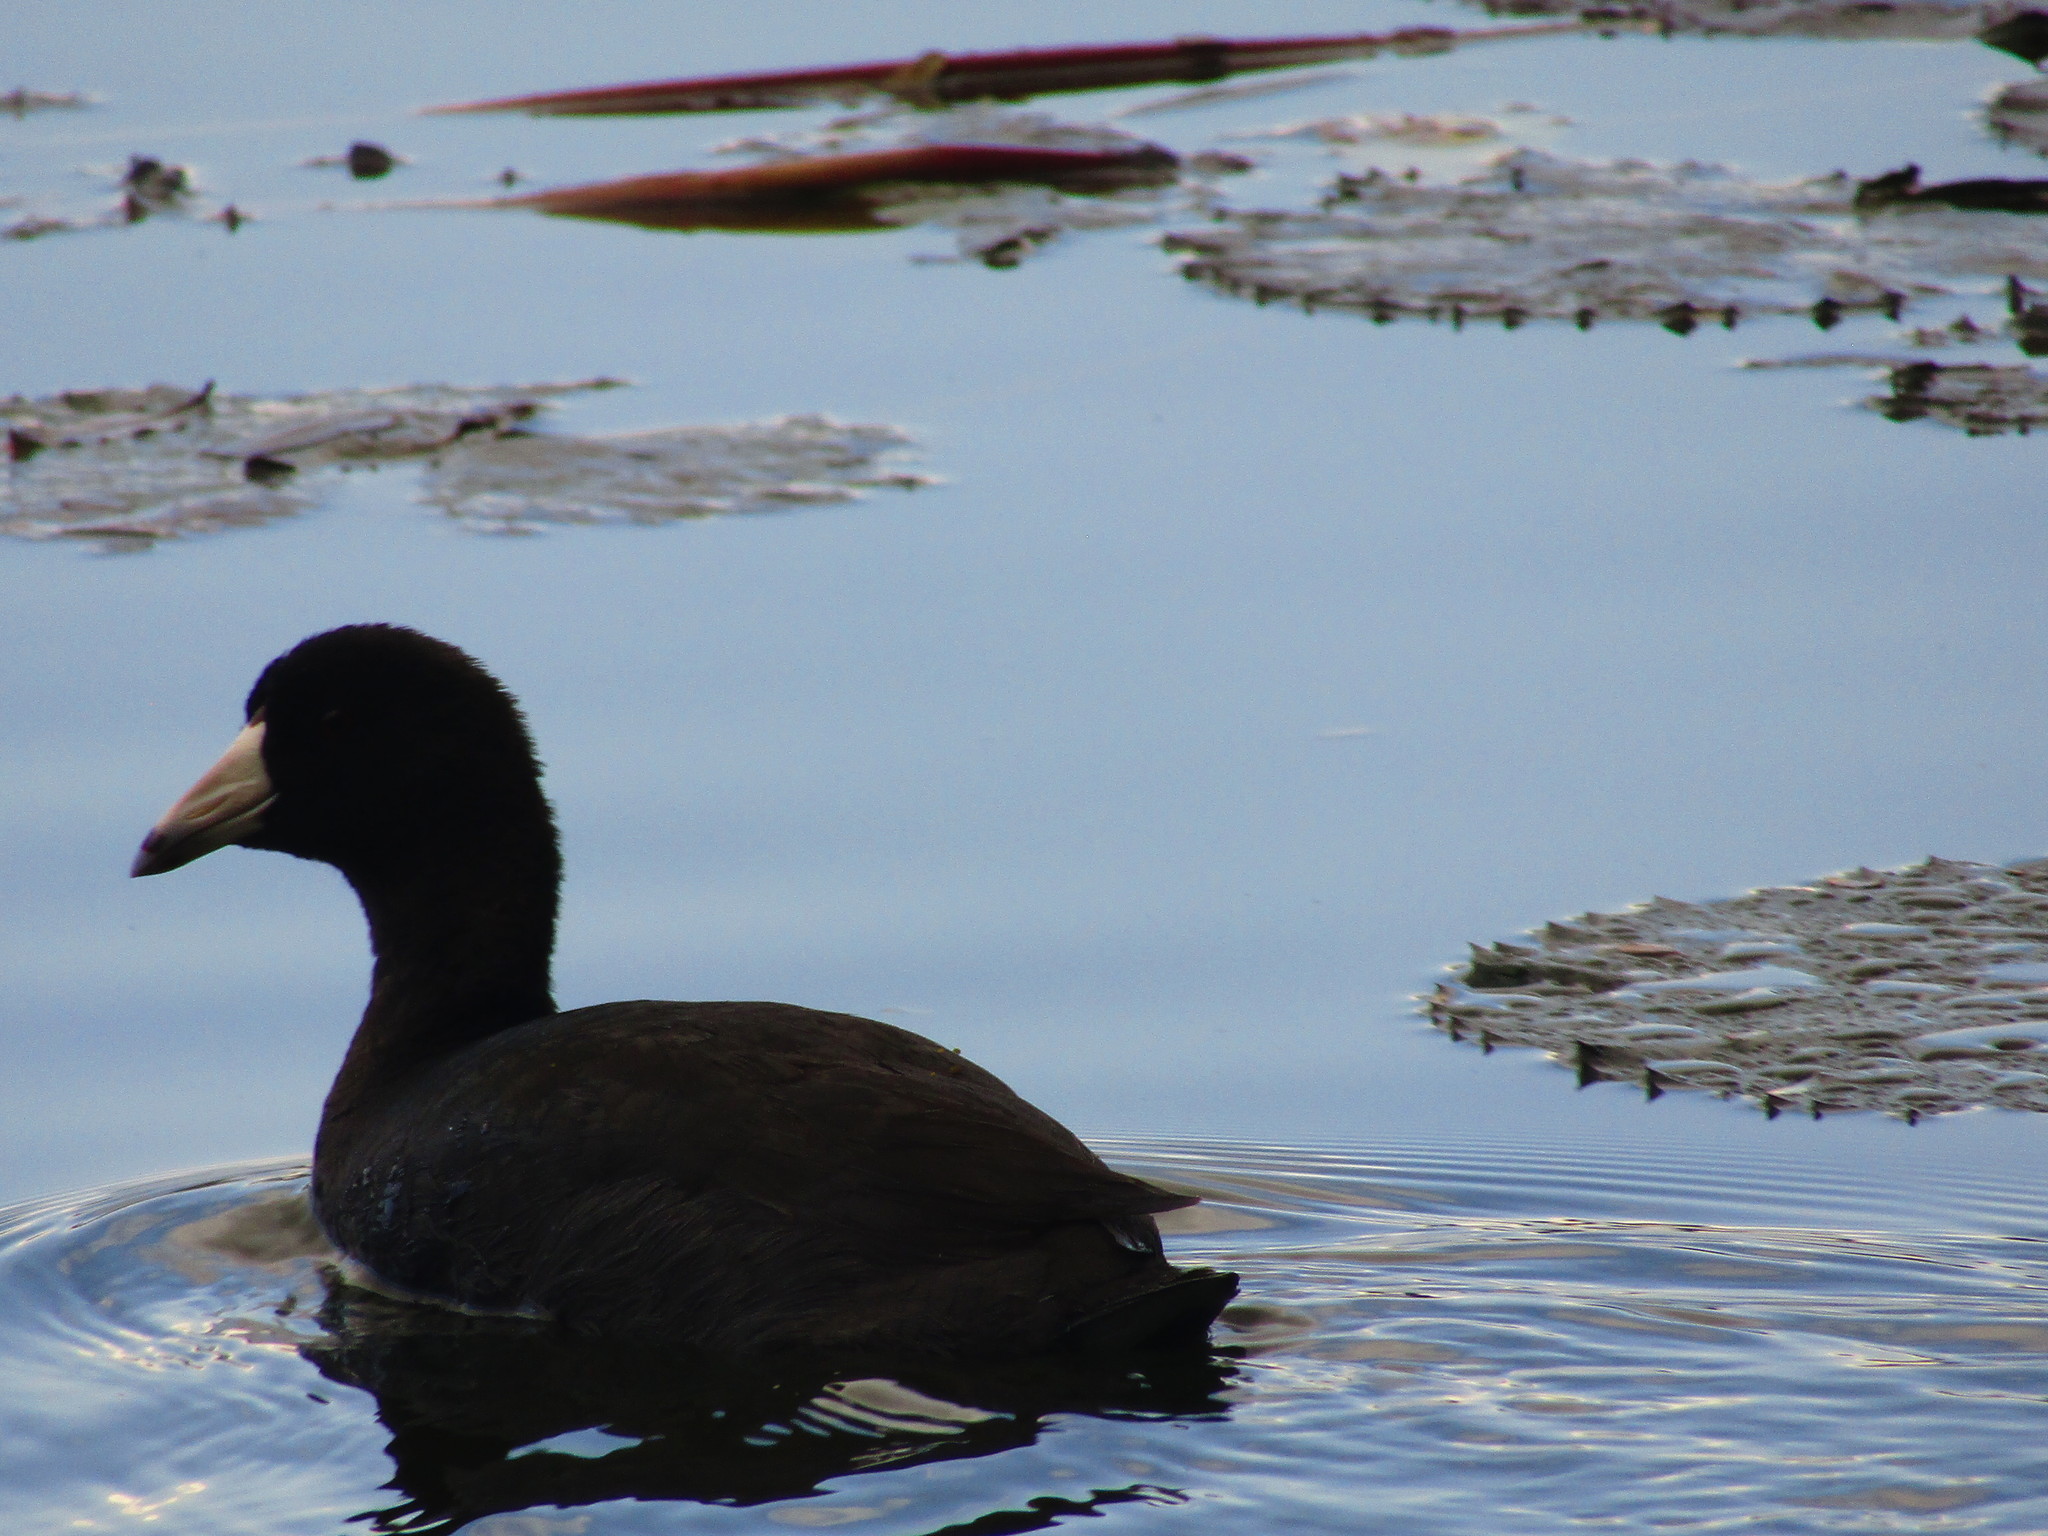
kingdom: Animalia
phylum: Chordata
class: Aves
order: Gruiformes
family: Rallidae
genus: Fulica
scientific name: Fulica americana
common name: American coot
